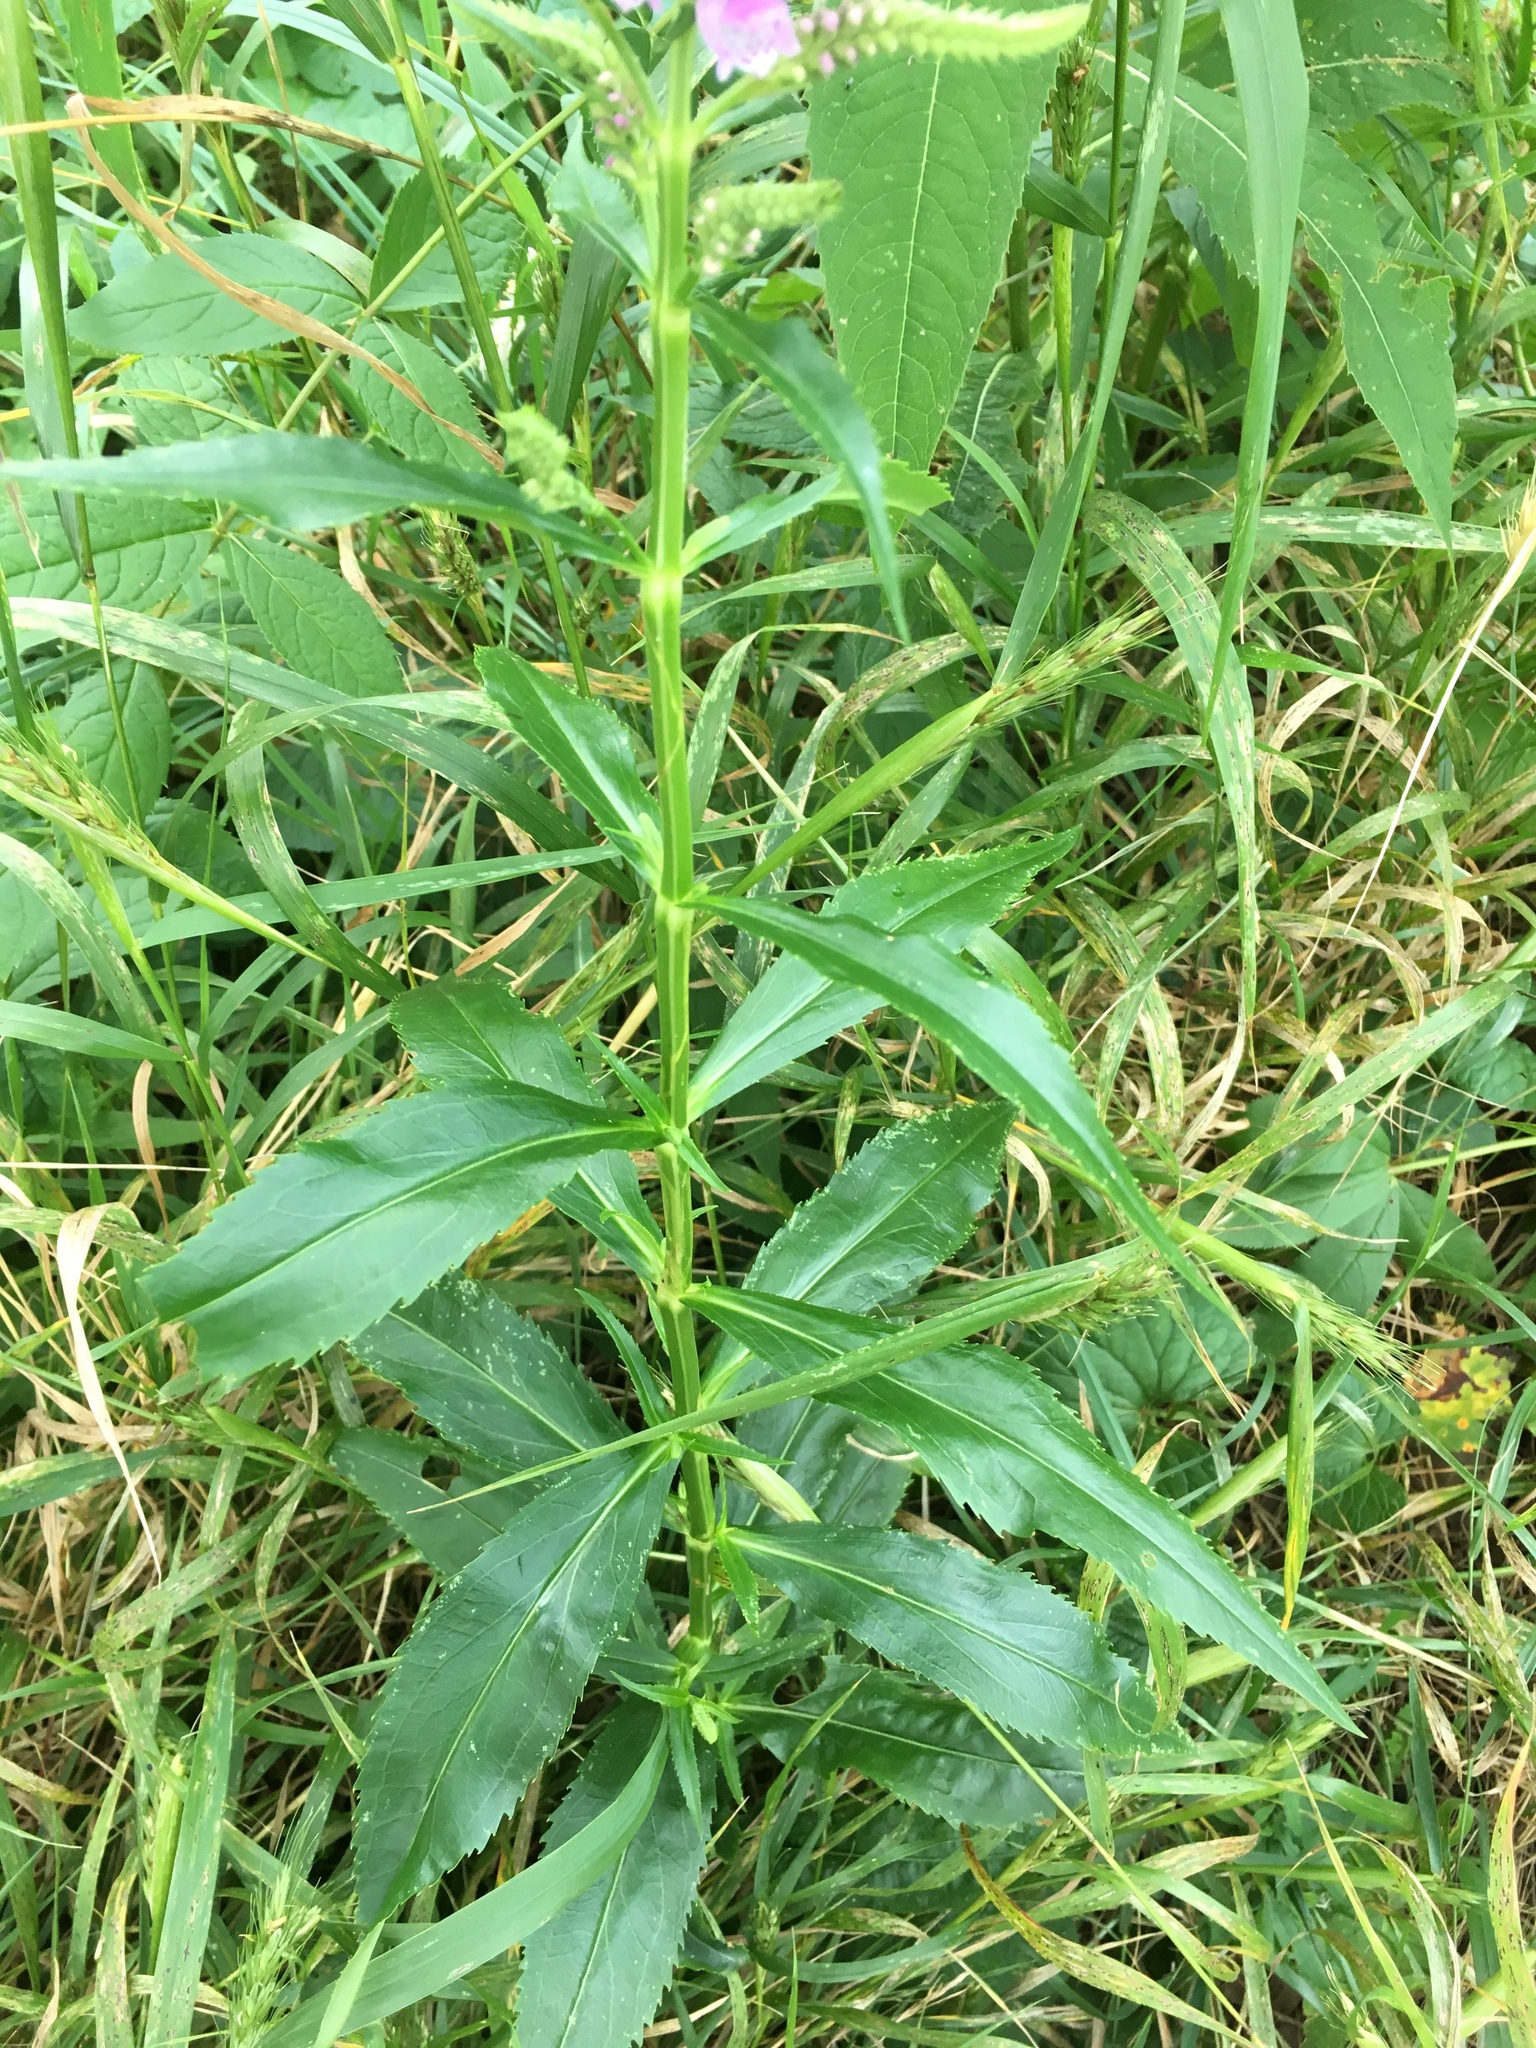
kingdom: Plantae
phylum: Tracheophyta
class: Magnoliopsida
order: Lamiales
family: Lamiaceae
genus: Physostegia
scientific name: Physostegia virginiana
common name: Obedient-plant
